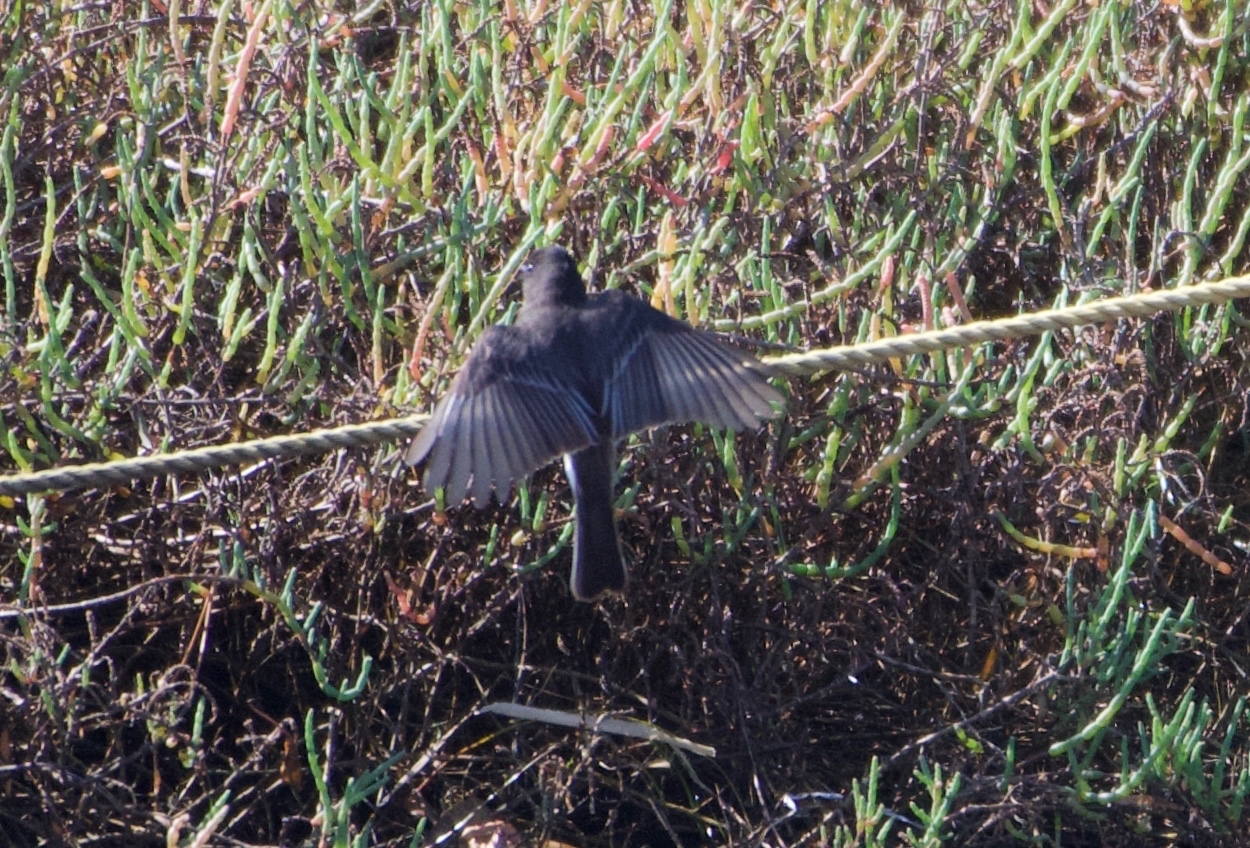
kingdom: Animalia
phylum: Chordata
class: Aves
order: Passeriformes
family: Tyrannidae
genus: Sayornis
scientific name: Sayornis nigricans
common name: Black phoebe
